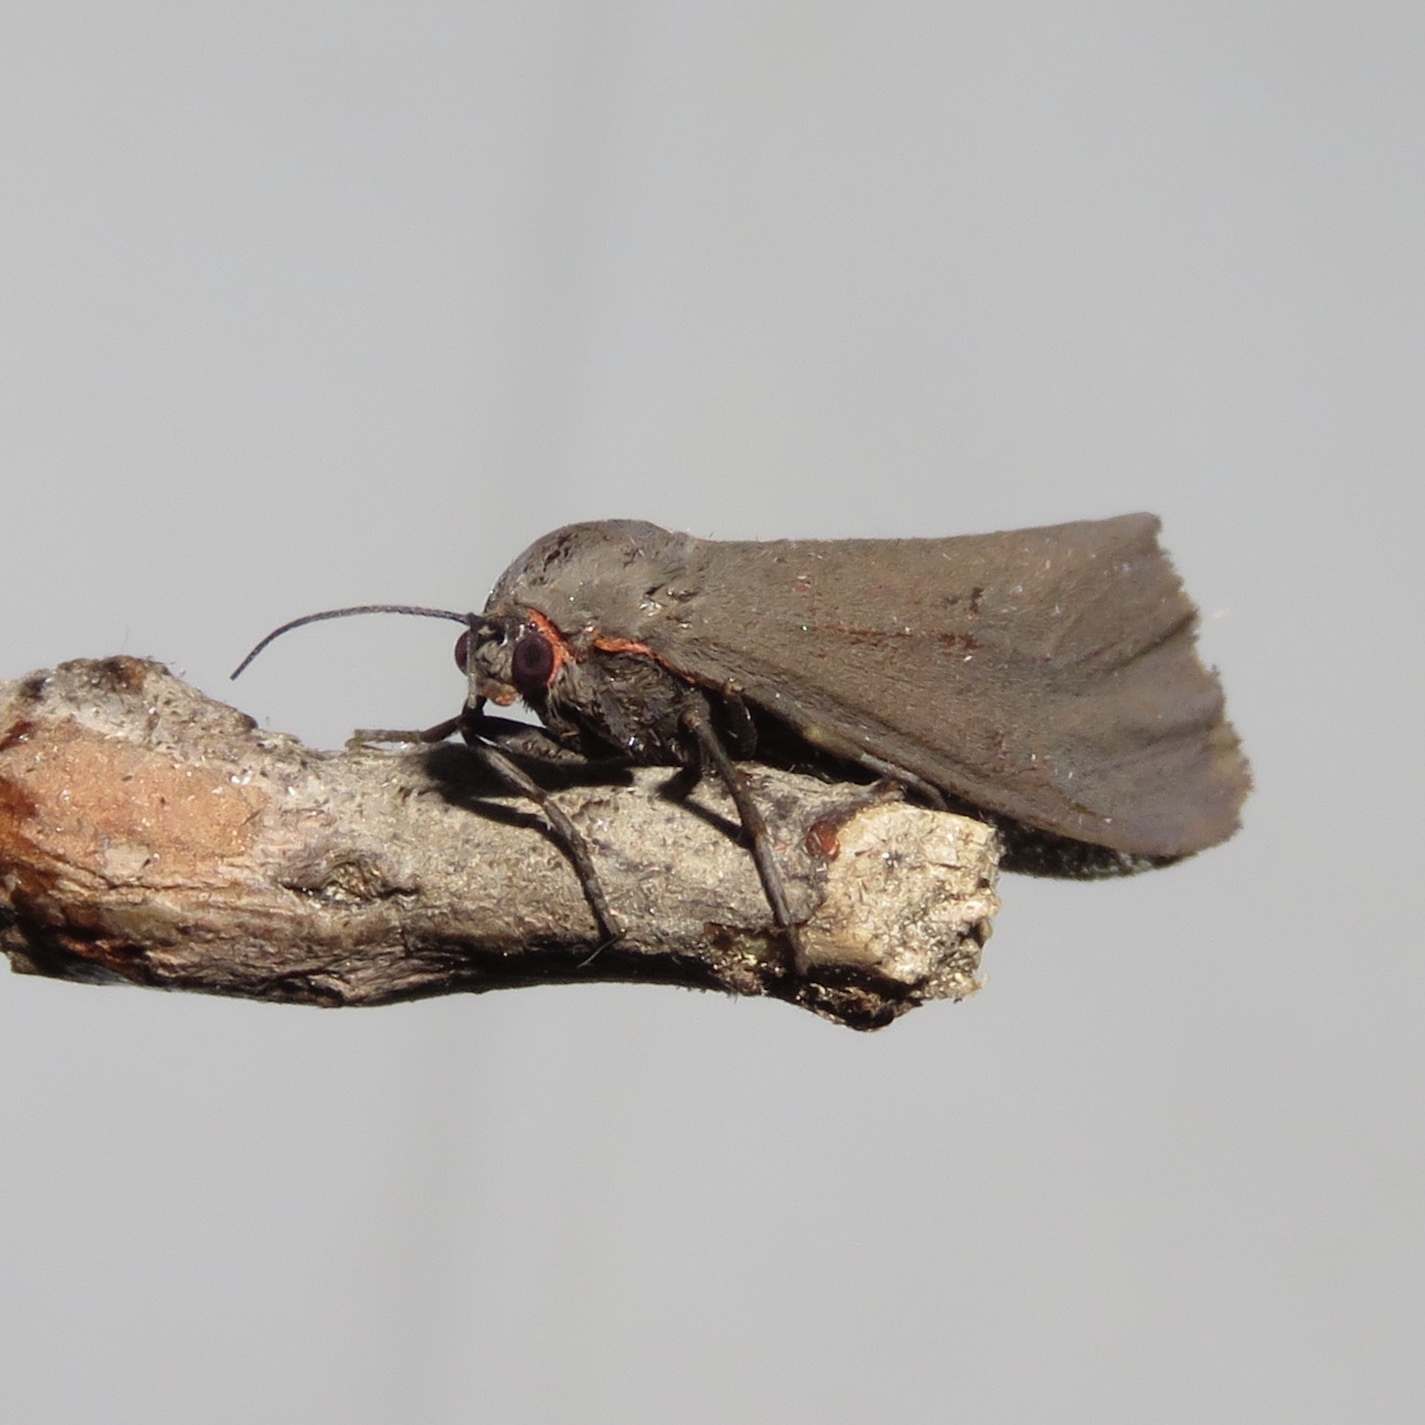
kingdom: Animalia
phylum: Arthropoda
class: Insecta
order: Lepidoptera
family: Erebidae
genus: Virbia
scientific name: Virbia laeta
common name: Joyful holomelina moth
